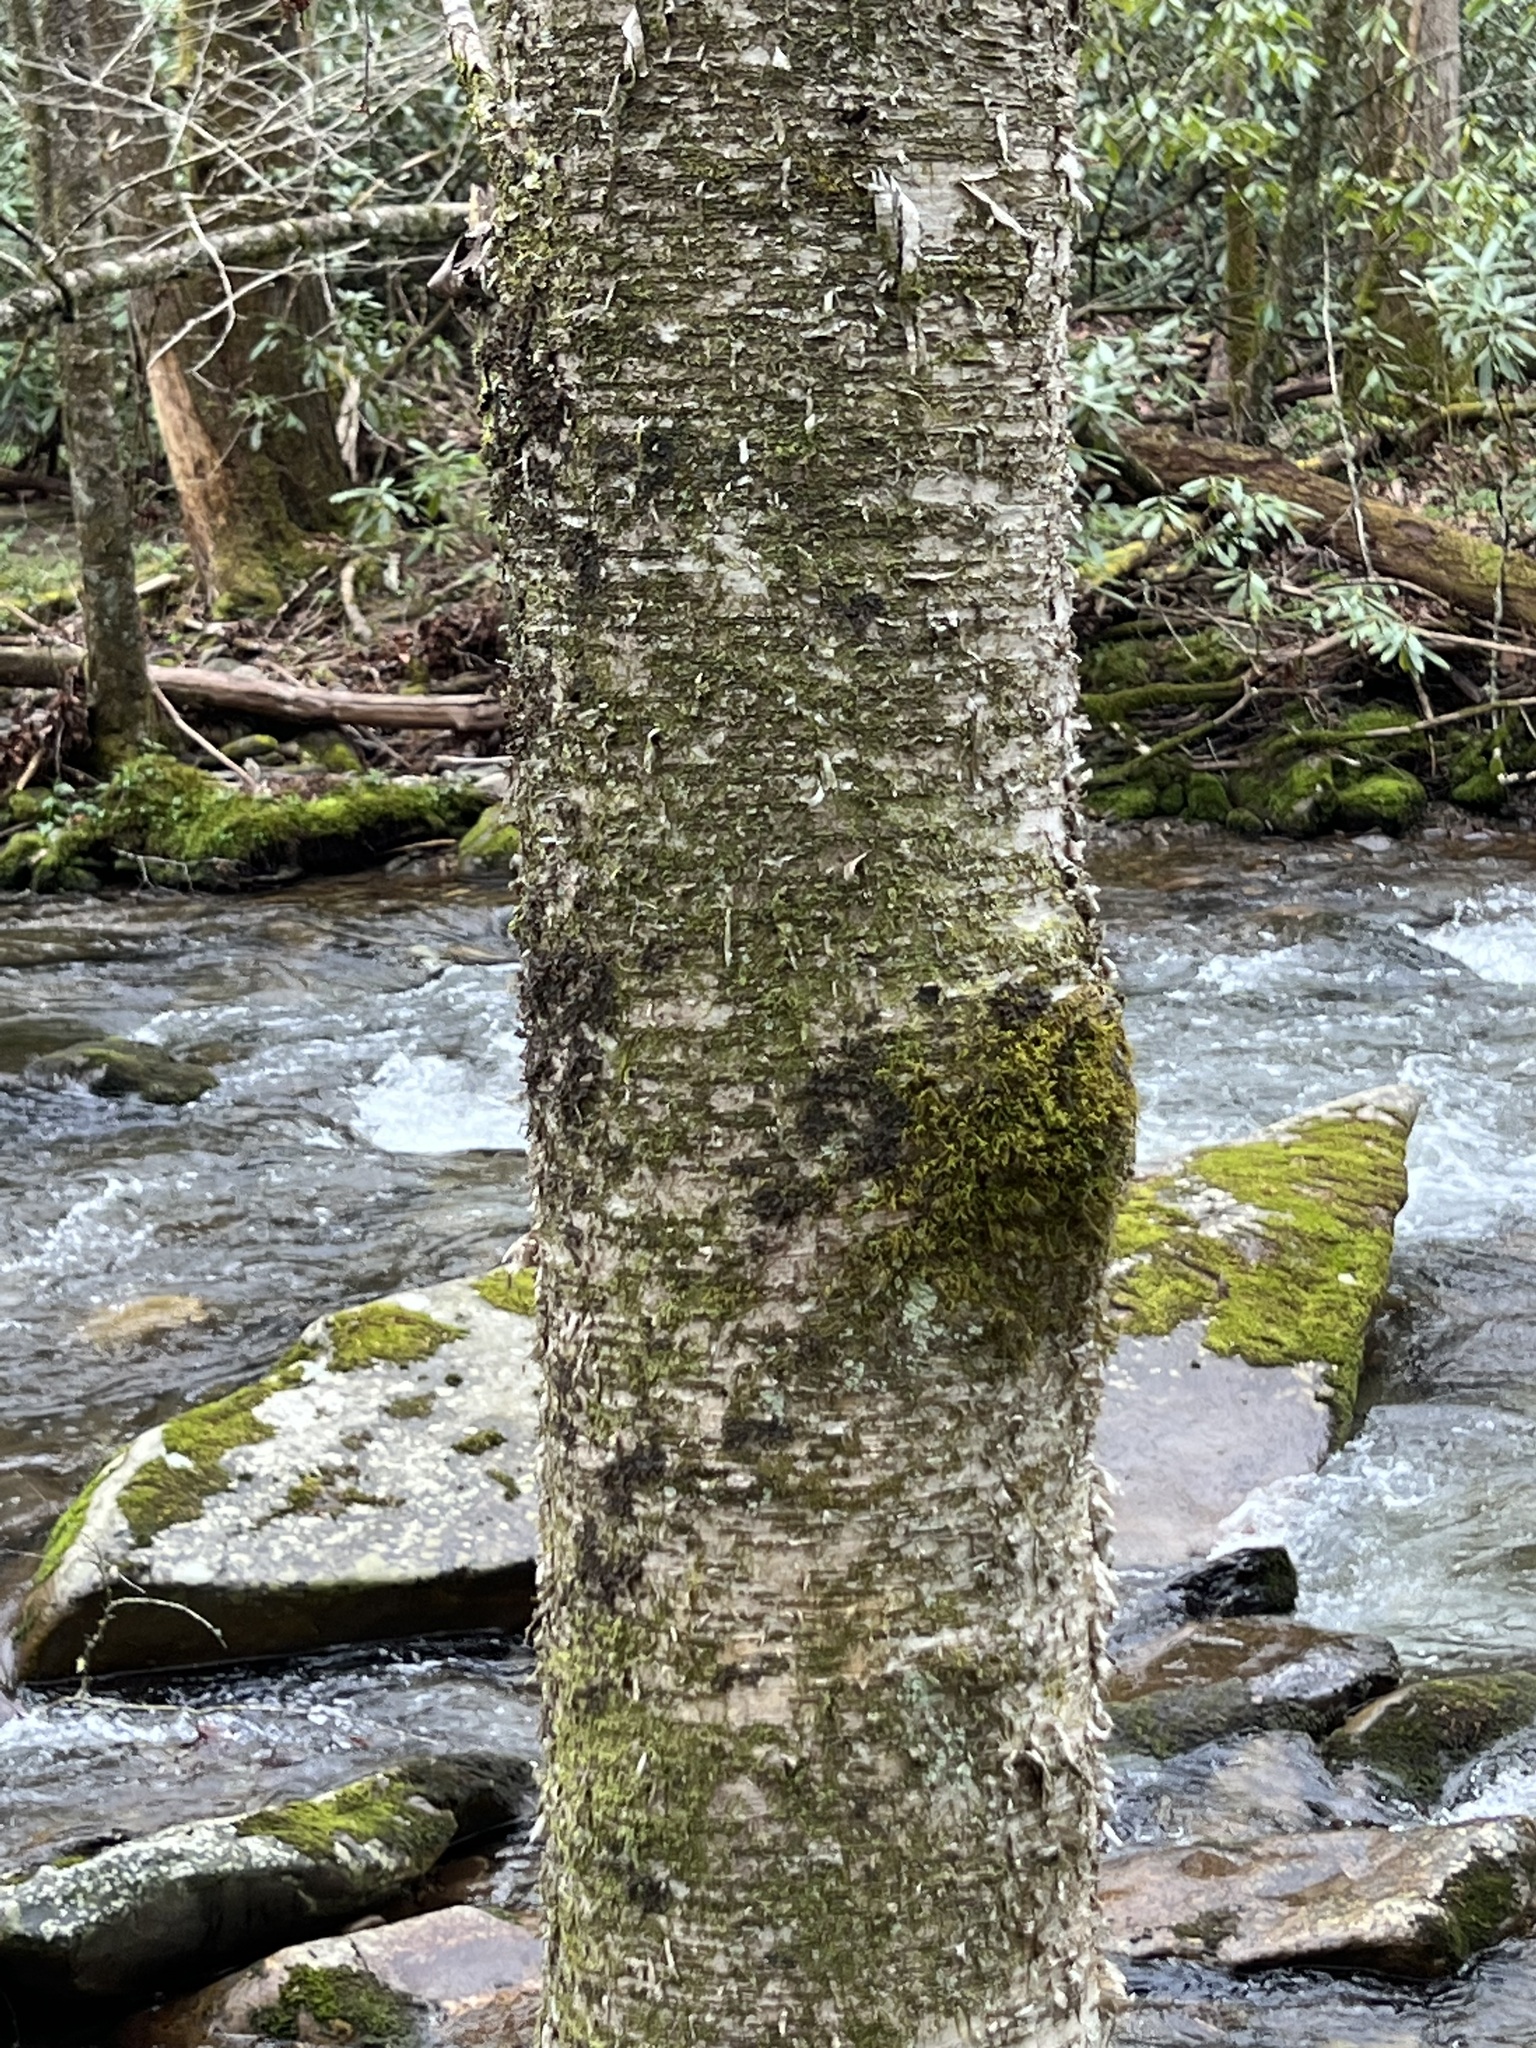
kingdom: Plantae
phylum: Tracheophyta
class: Magnoliopsida
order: Fagales
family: Betulaceae
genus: Betula
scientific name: Betula alleghaniensis
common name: Yellow birch
